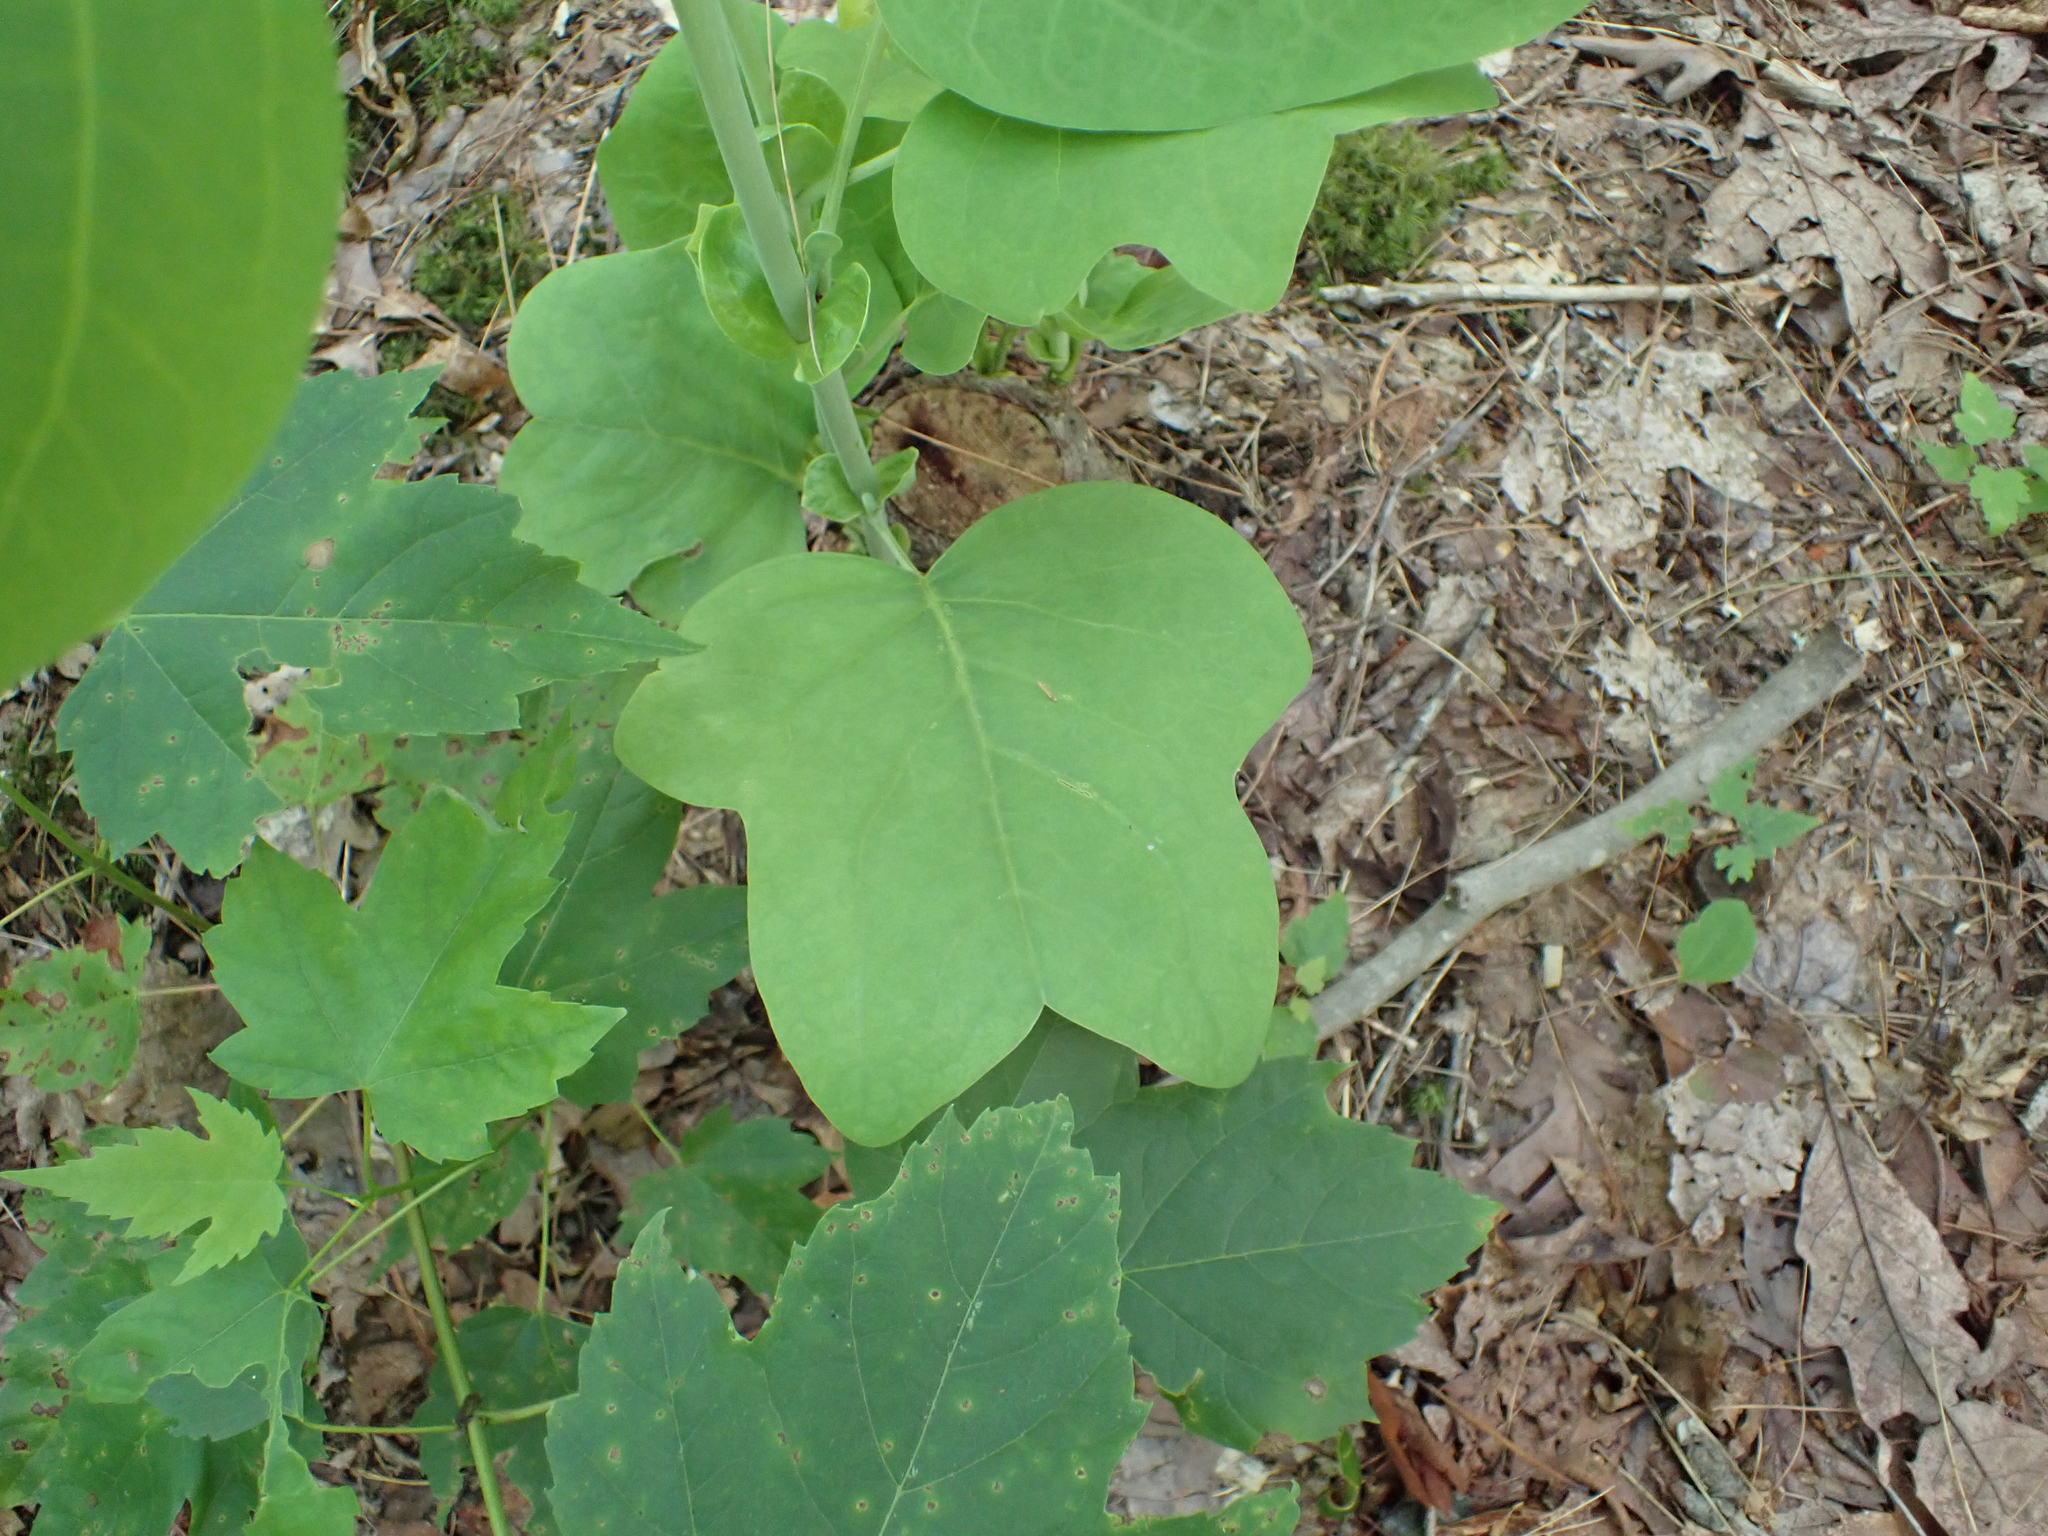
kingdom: Plantae
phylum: Tracheophyta
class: Magnoliopsida
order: Magnoliales
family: Magnoliaceae
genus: Liriodendron
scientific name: Liriodendron tulipifera
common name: Tulip tree
